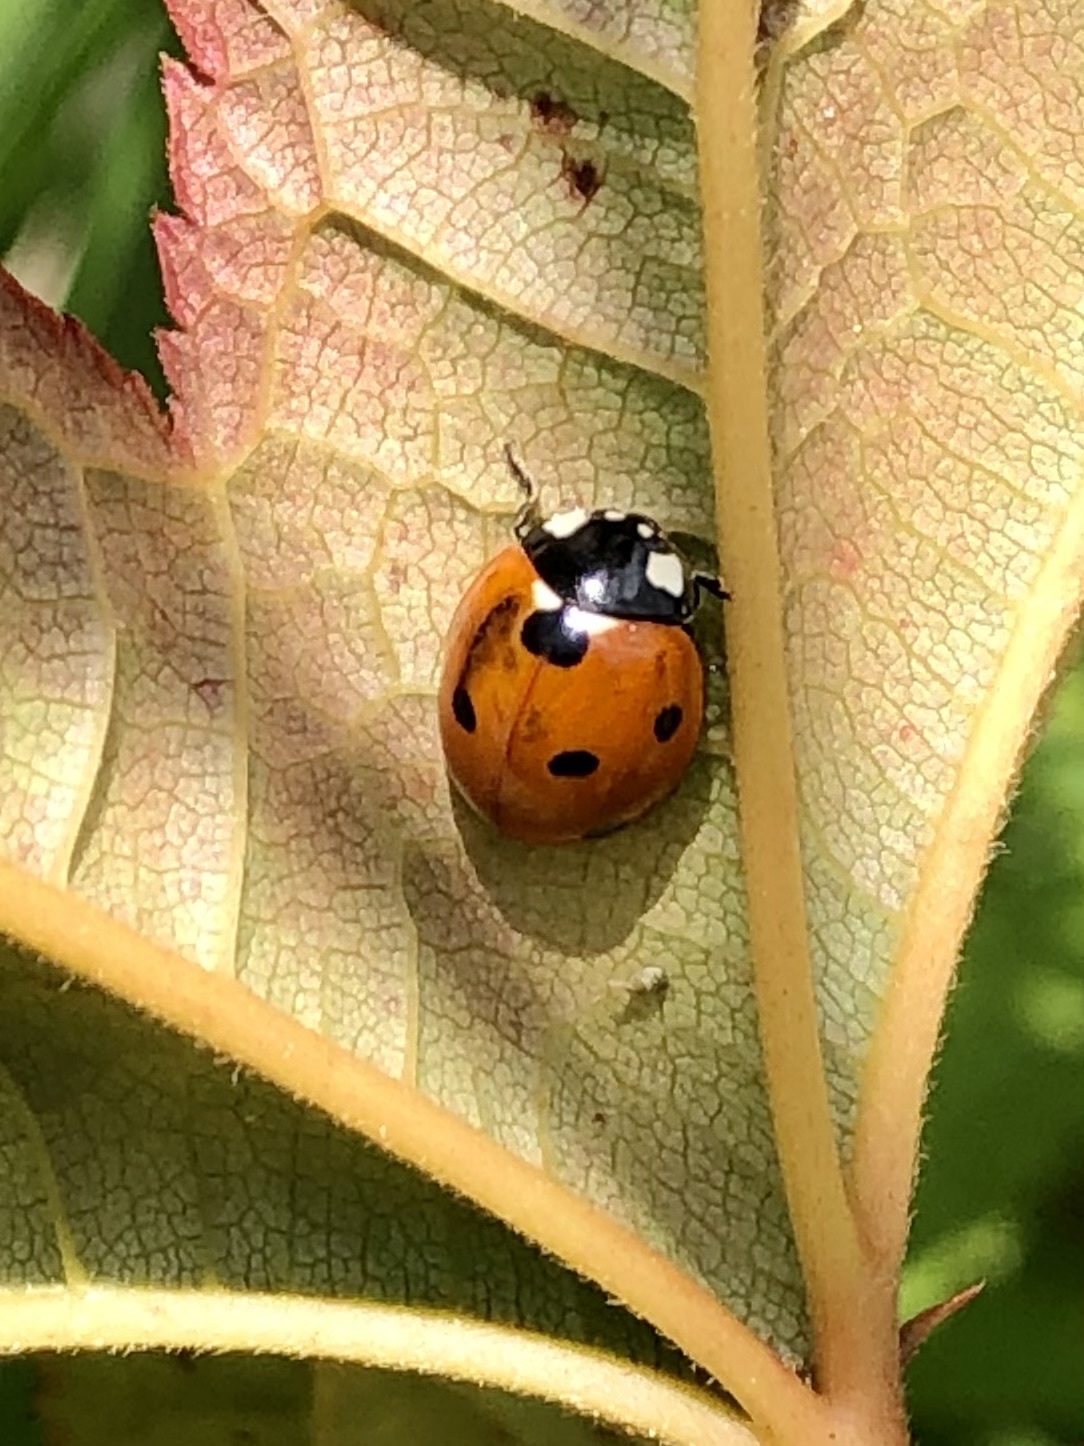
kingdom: Animalia
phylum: Arthropoda
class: Insecta
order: Coleoptera
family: Coccinellidae
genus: Coccinella
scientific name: Coccinella septempunctata
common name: Sevenspotted lady beetle
